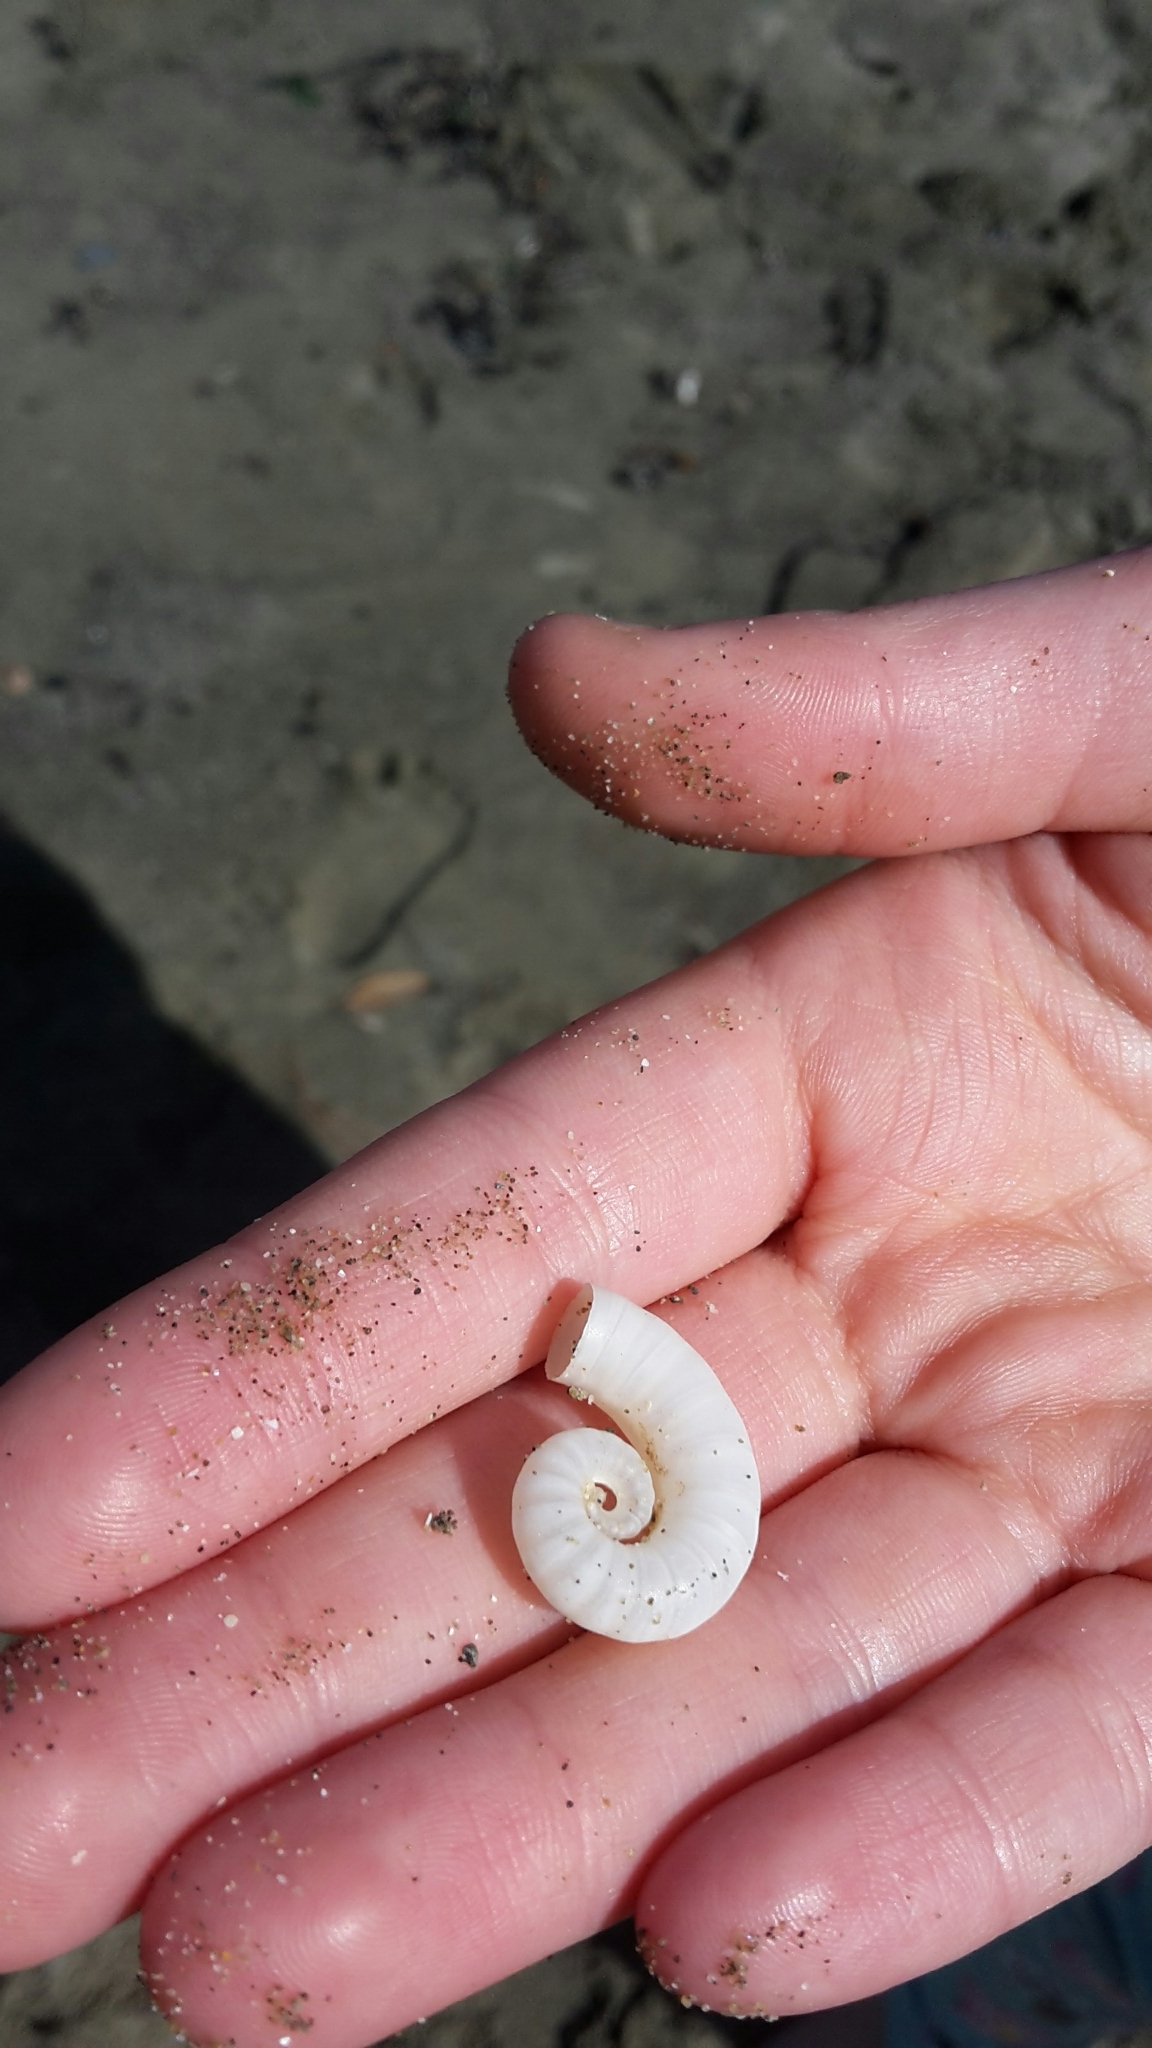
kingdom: Animalia
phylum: Mollusca
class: Cephalopoda
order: Spirulida
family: Spirulidae
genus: Spirula
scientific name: Spirula spirula
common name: Ram's horn squid
